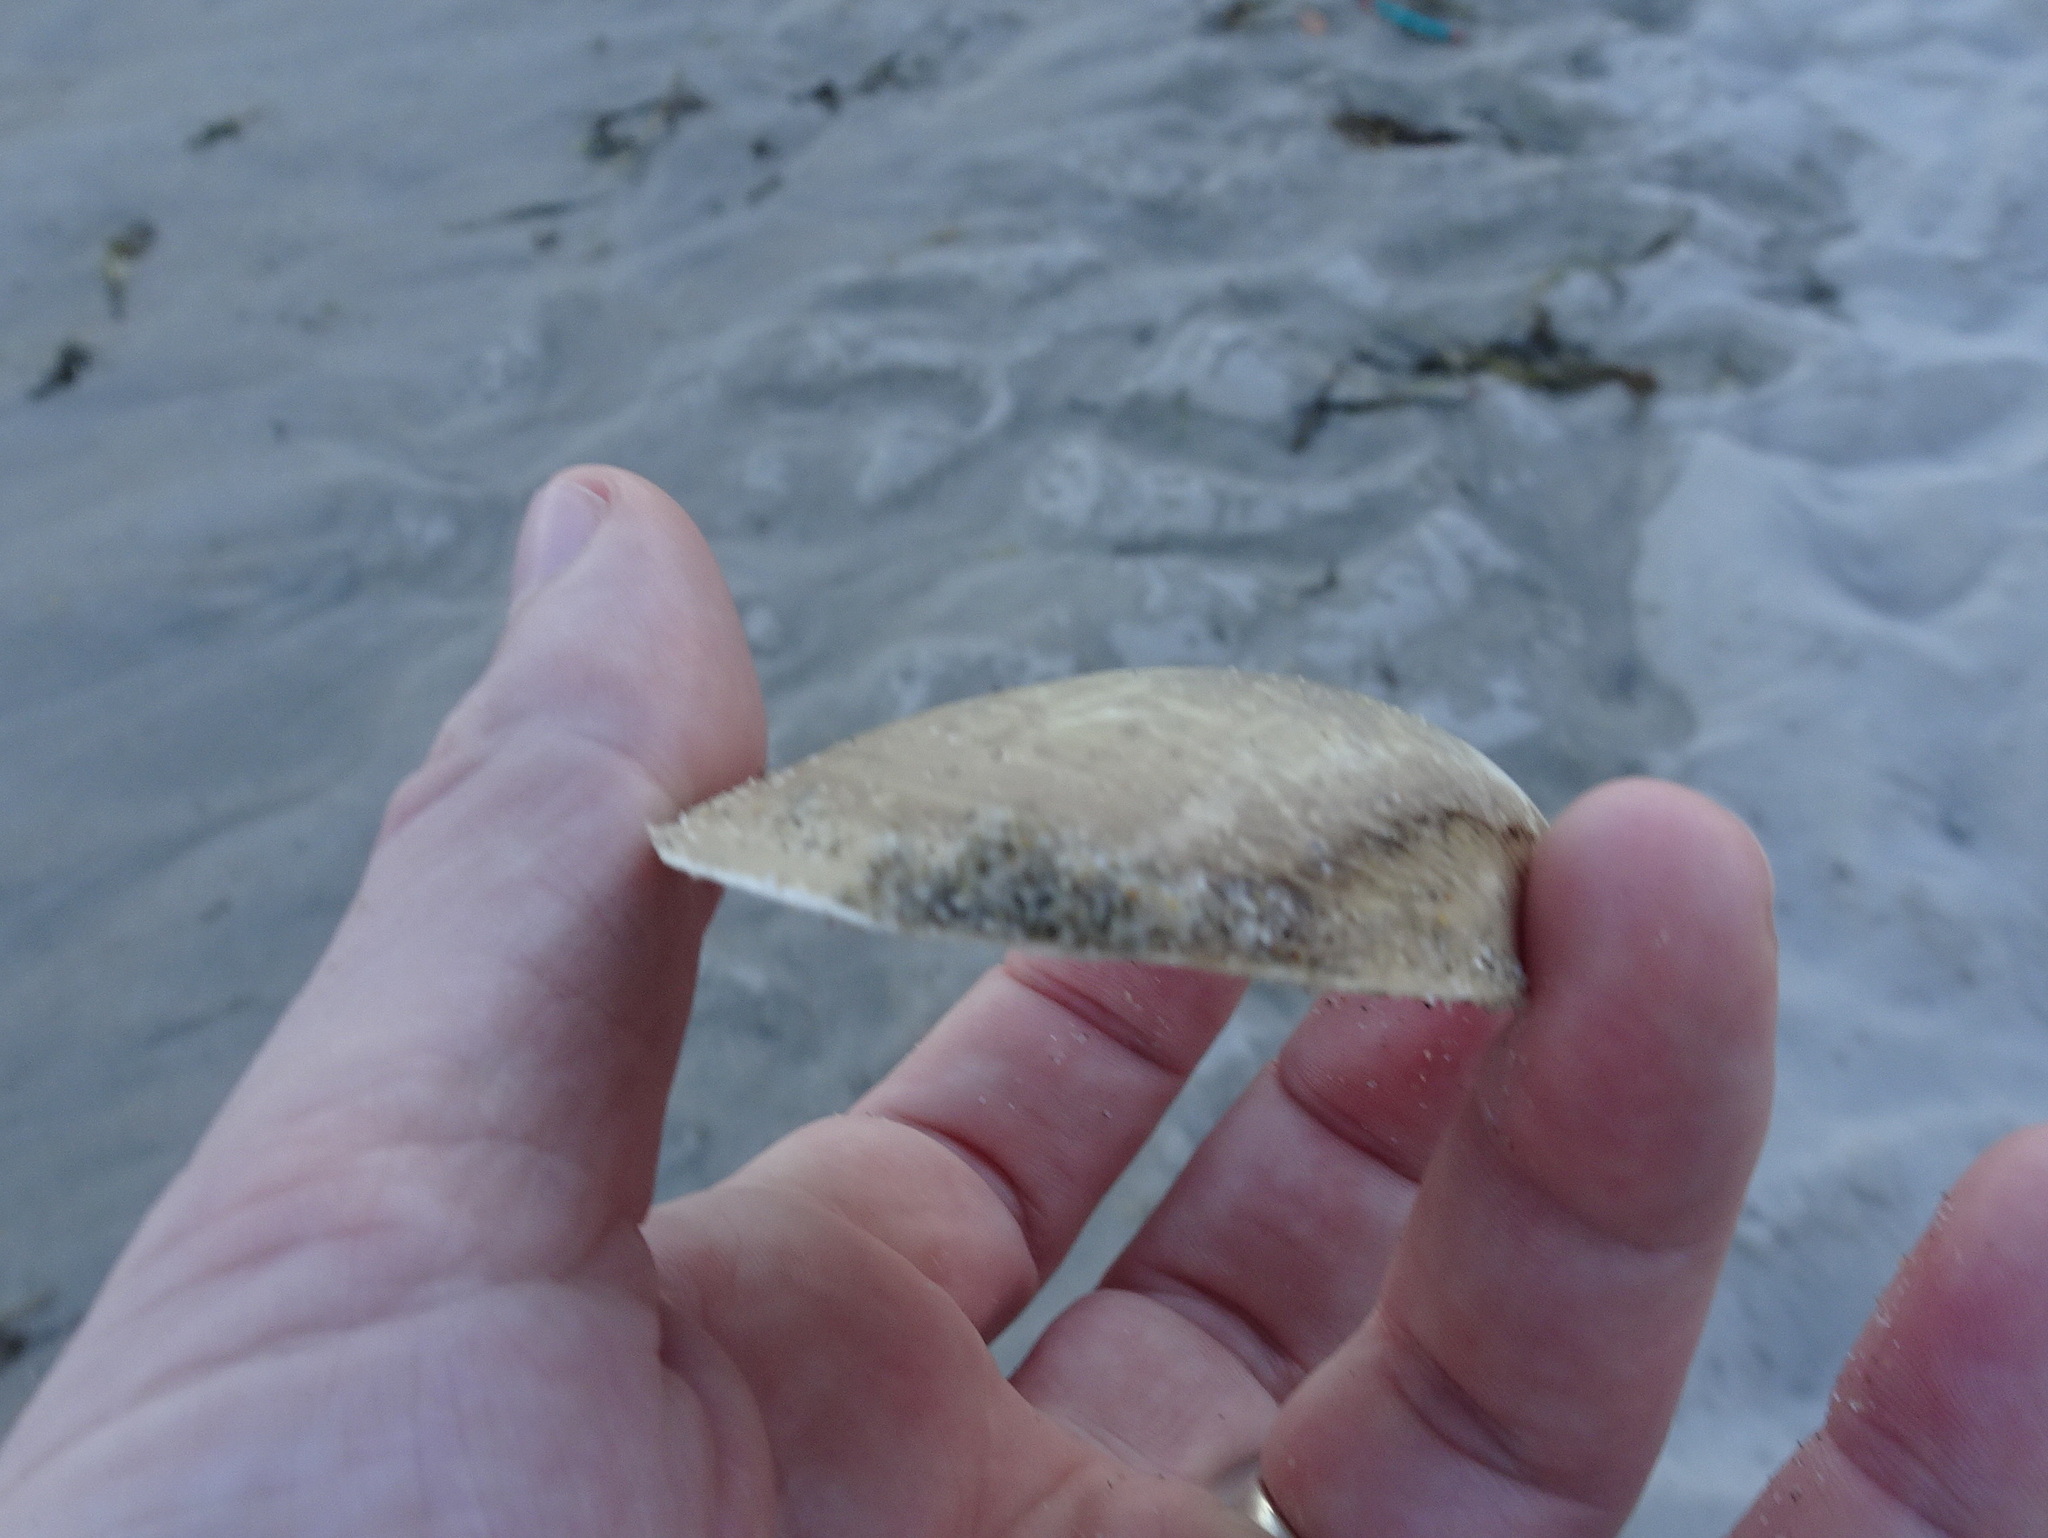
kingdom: Animalia
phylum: Mollusca
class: Bivalvia
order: Venerida
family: Mactridae
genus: Spisula
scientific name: Spisula solidissima
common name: Atlantic surf clam
